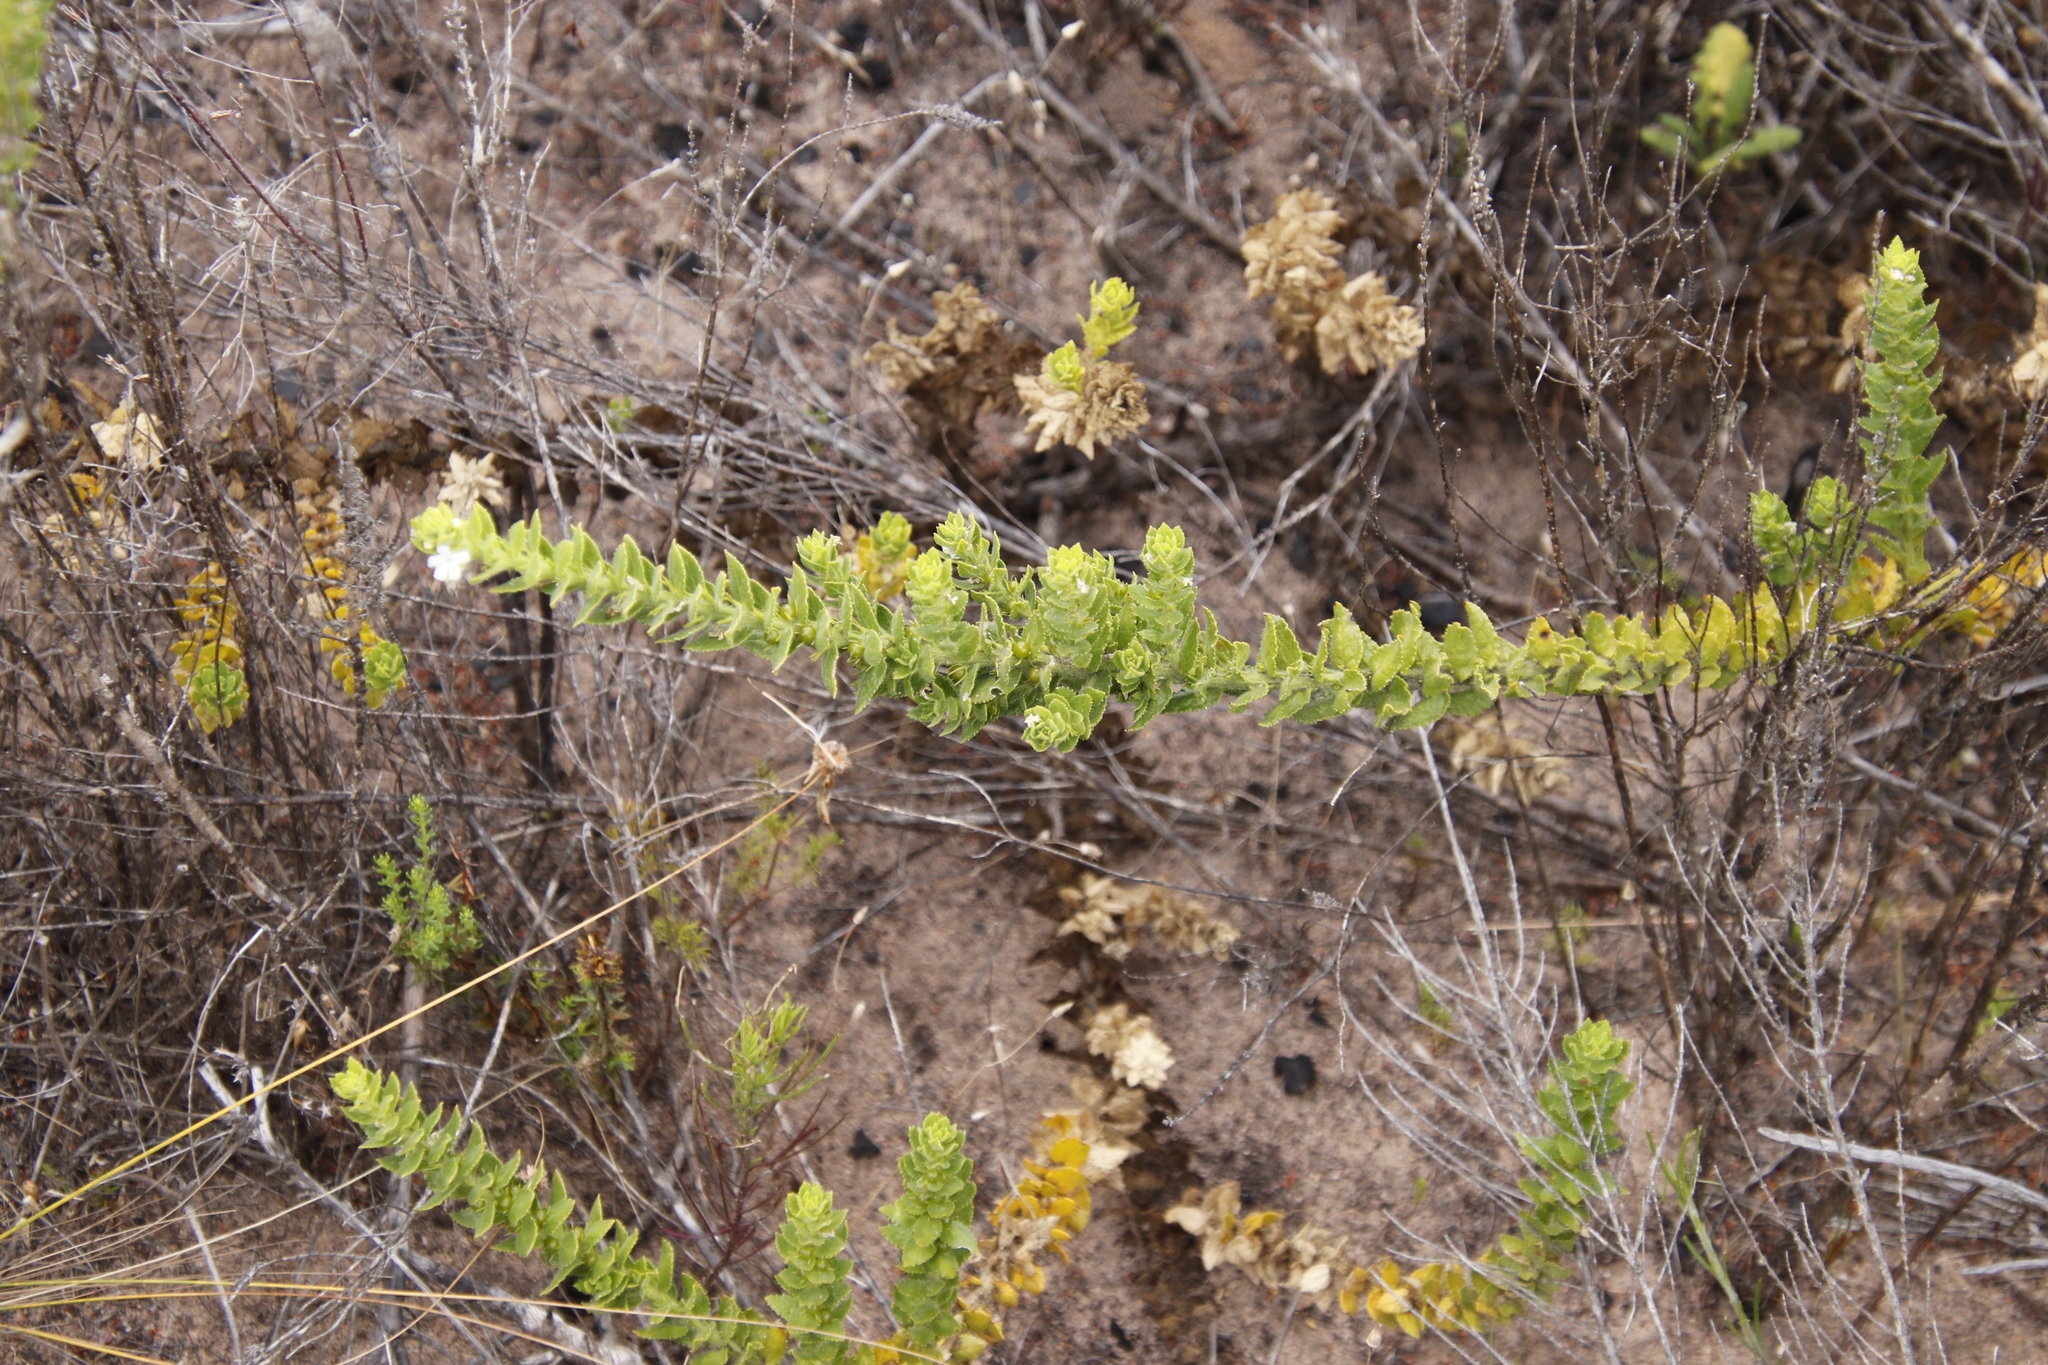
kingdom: Plantae
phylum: Tracheophyta
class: Magnoliopsida
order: Lamiales
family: Scrophulariaceae
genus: Oftia
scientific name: Oftia africana
